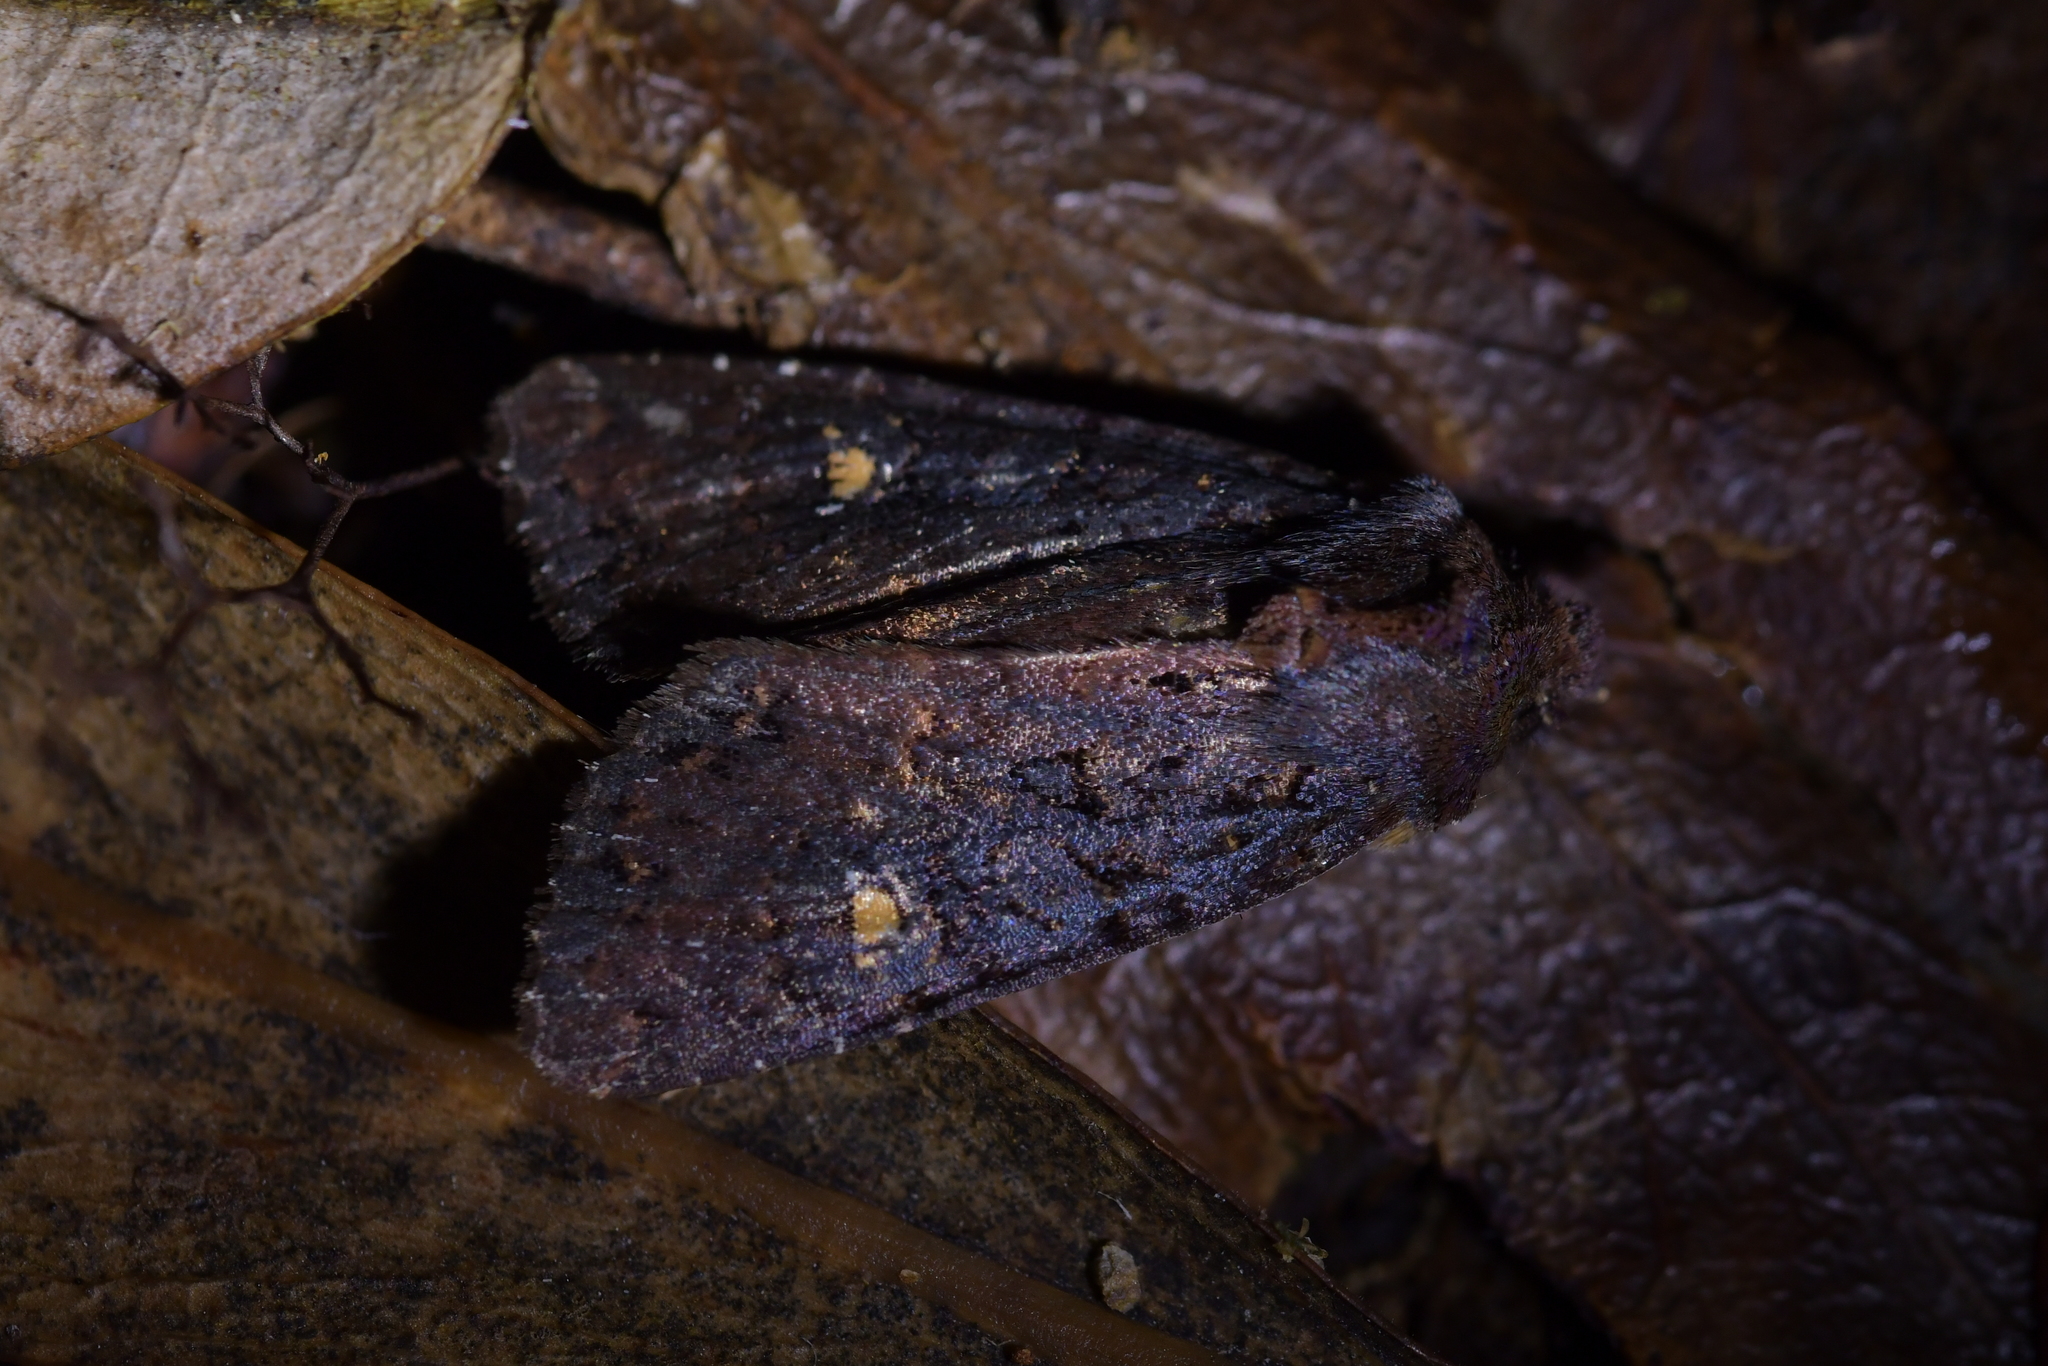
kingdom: Animalia
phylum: Arthropoda
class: Insecta
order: Lepidoptera
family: Noctuidae
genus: Meterana
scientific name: Meterana vitiosa
